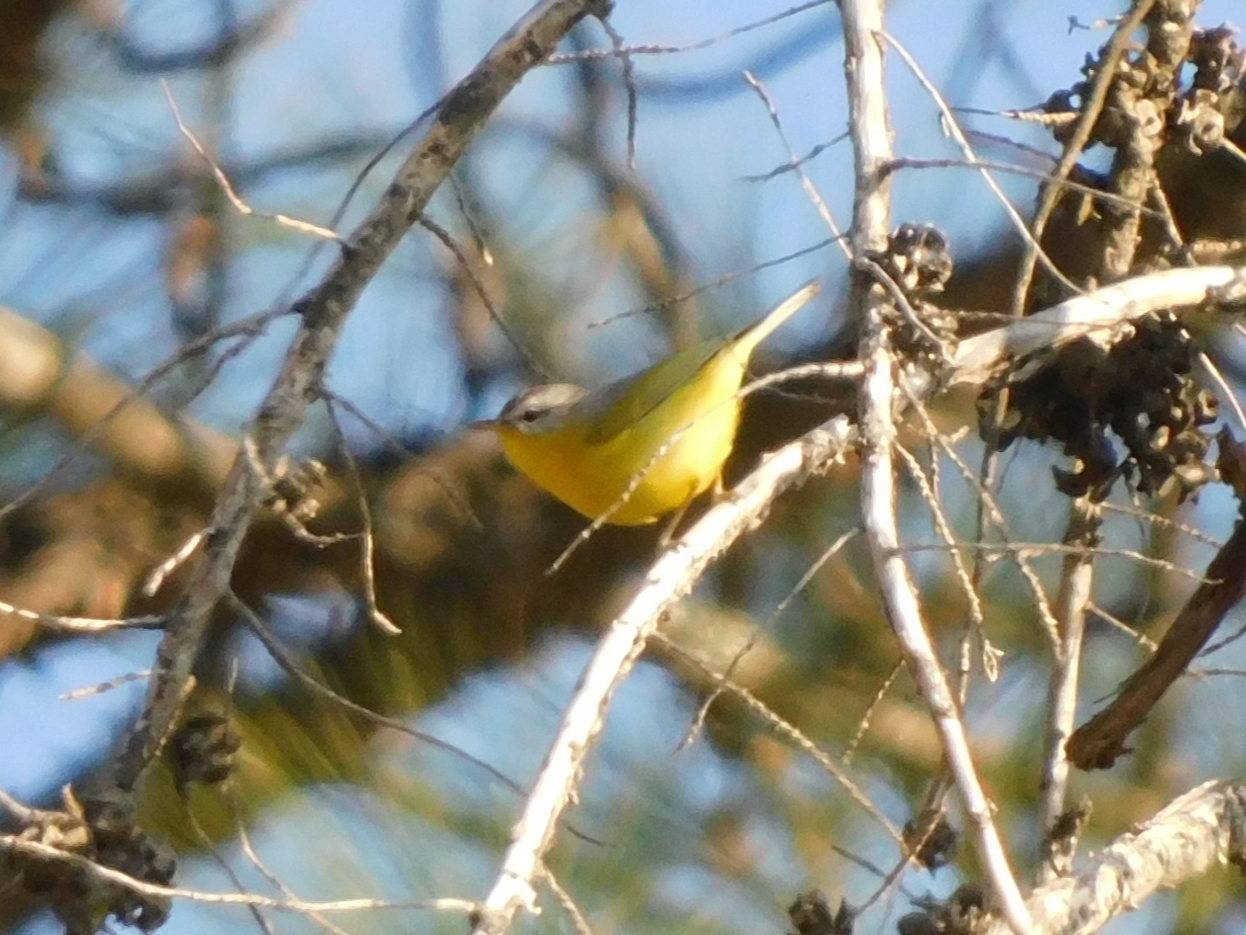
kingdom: Animalia
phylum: Chordata
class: Aves
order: Passeriformes
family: Phylloscopidae
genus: Phylloscopus
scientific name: Phylloscopus xanthoschistos
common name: Grey-hooded warbler
